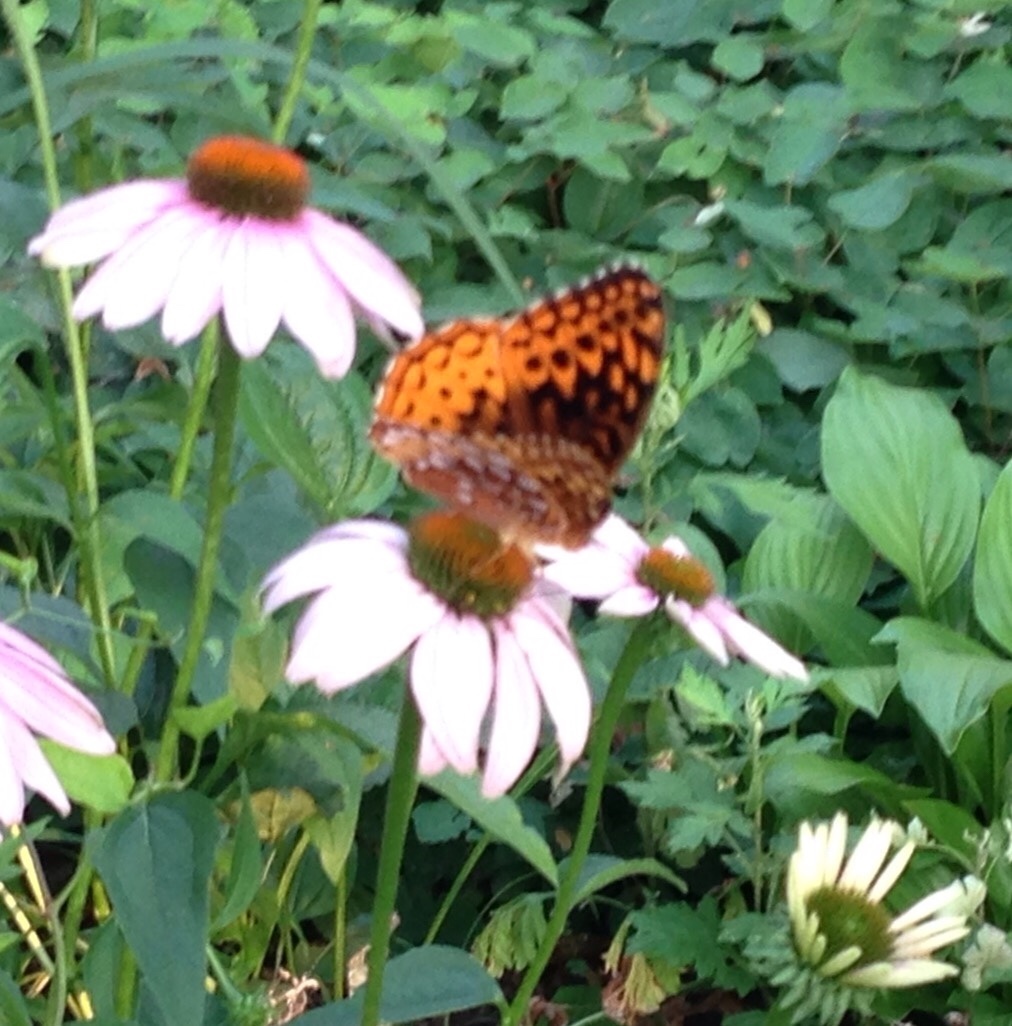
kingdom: Animalia
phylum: Arthropoda
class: Insecta
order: Lepidoptera
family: Nymphalidae
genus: Speyeria
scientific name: Speyeria cybele
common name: Great spangled fritillary
